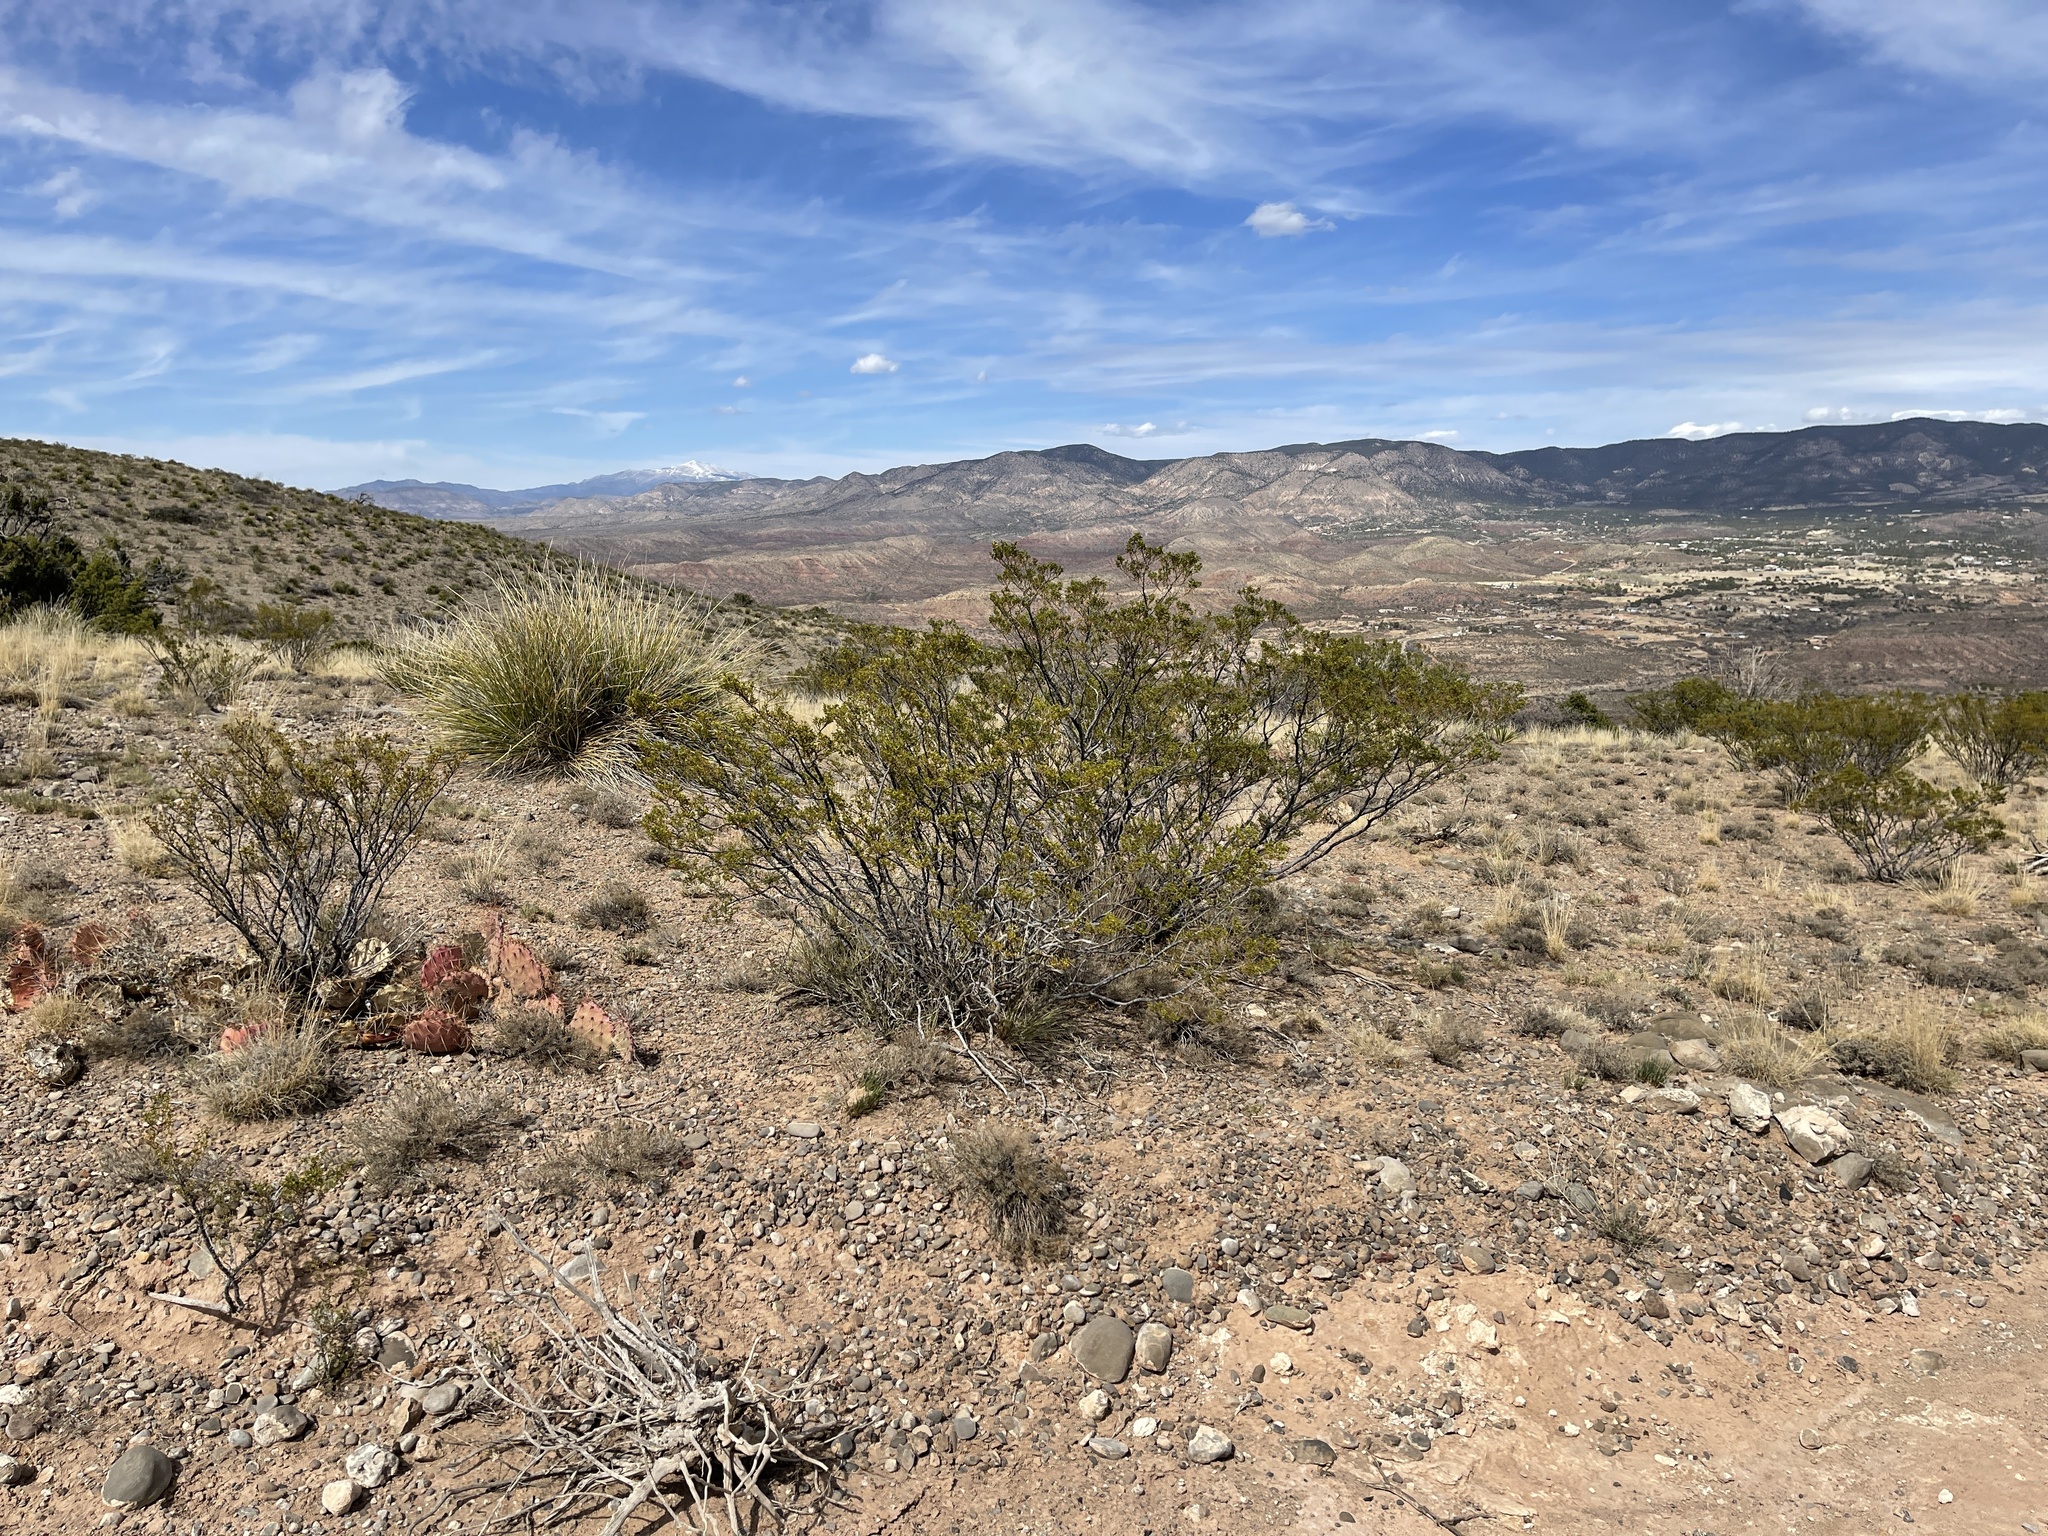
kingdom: Plantae
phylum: Tracheophyta
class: Magnoliopsida
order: Zygophyllales
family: Zygophyllaceae
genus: Larrea
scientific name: Larrea tridentata
